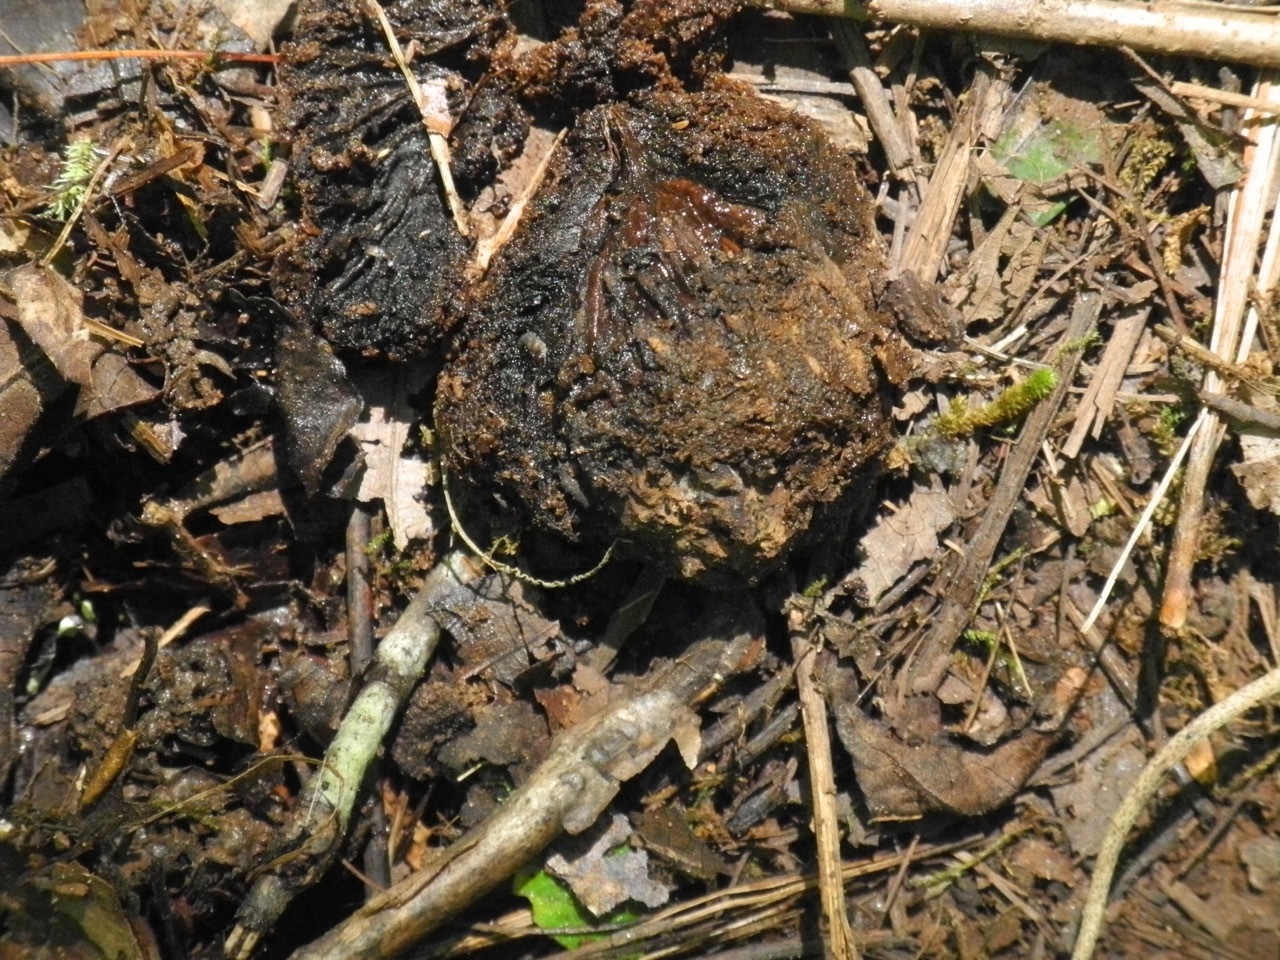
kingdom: Plantae
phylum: Tracheophyta
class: Magnoliopsida
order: Fagales
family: Juglandaceae
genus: Juglans
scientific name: Juglans nigra
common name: Black walnut
